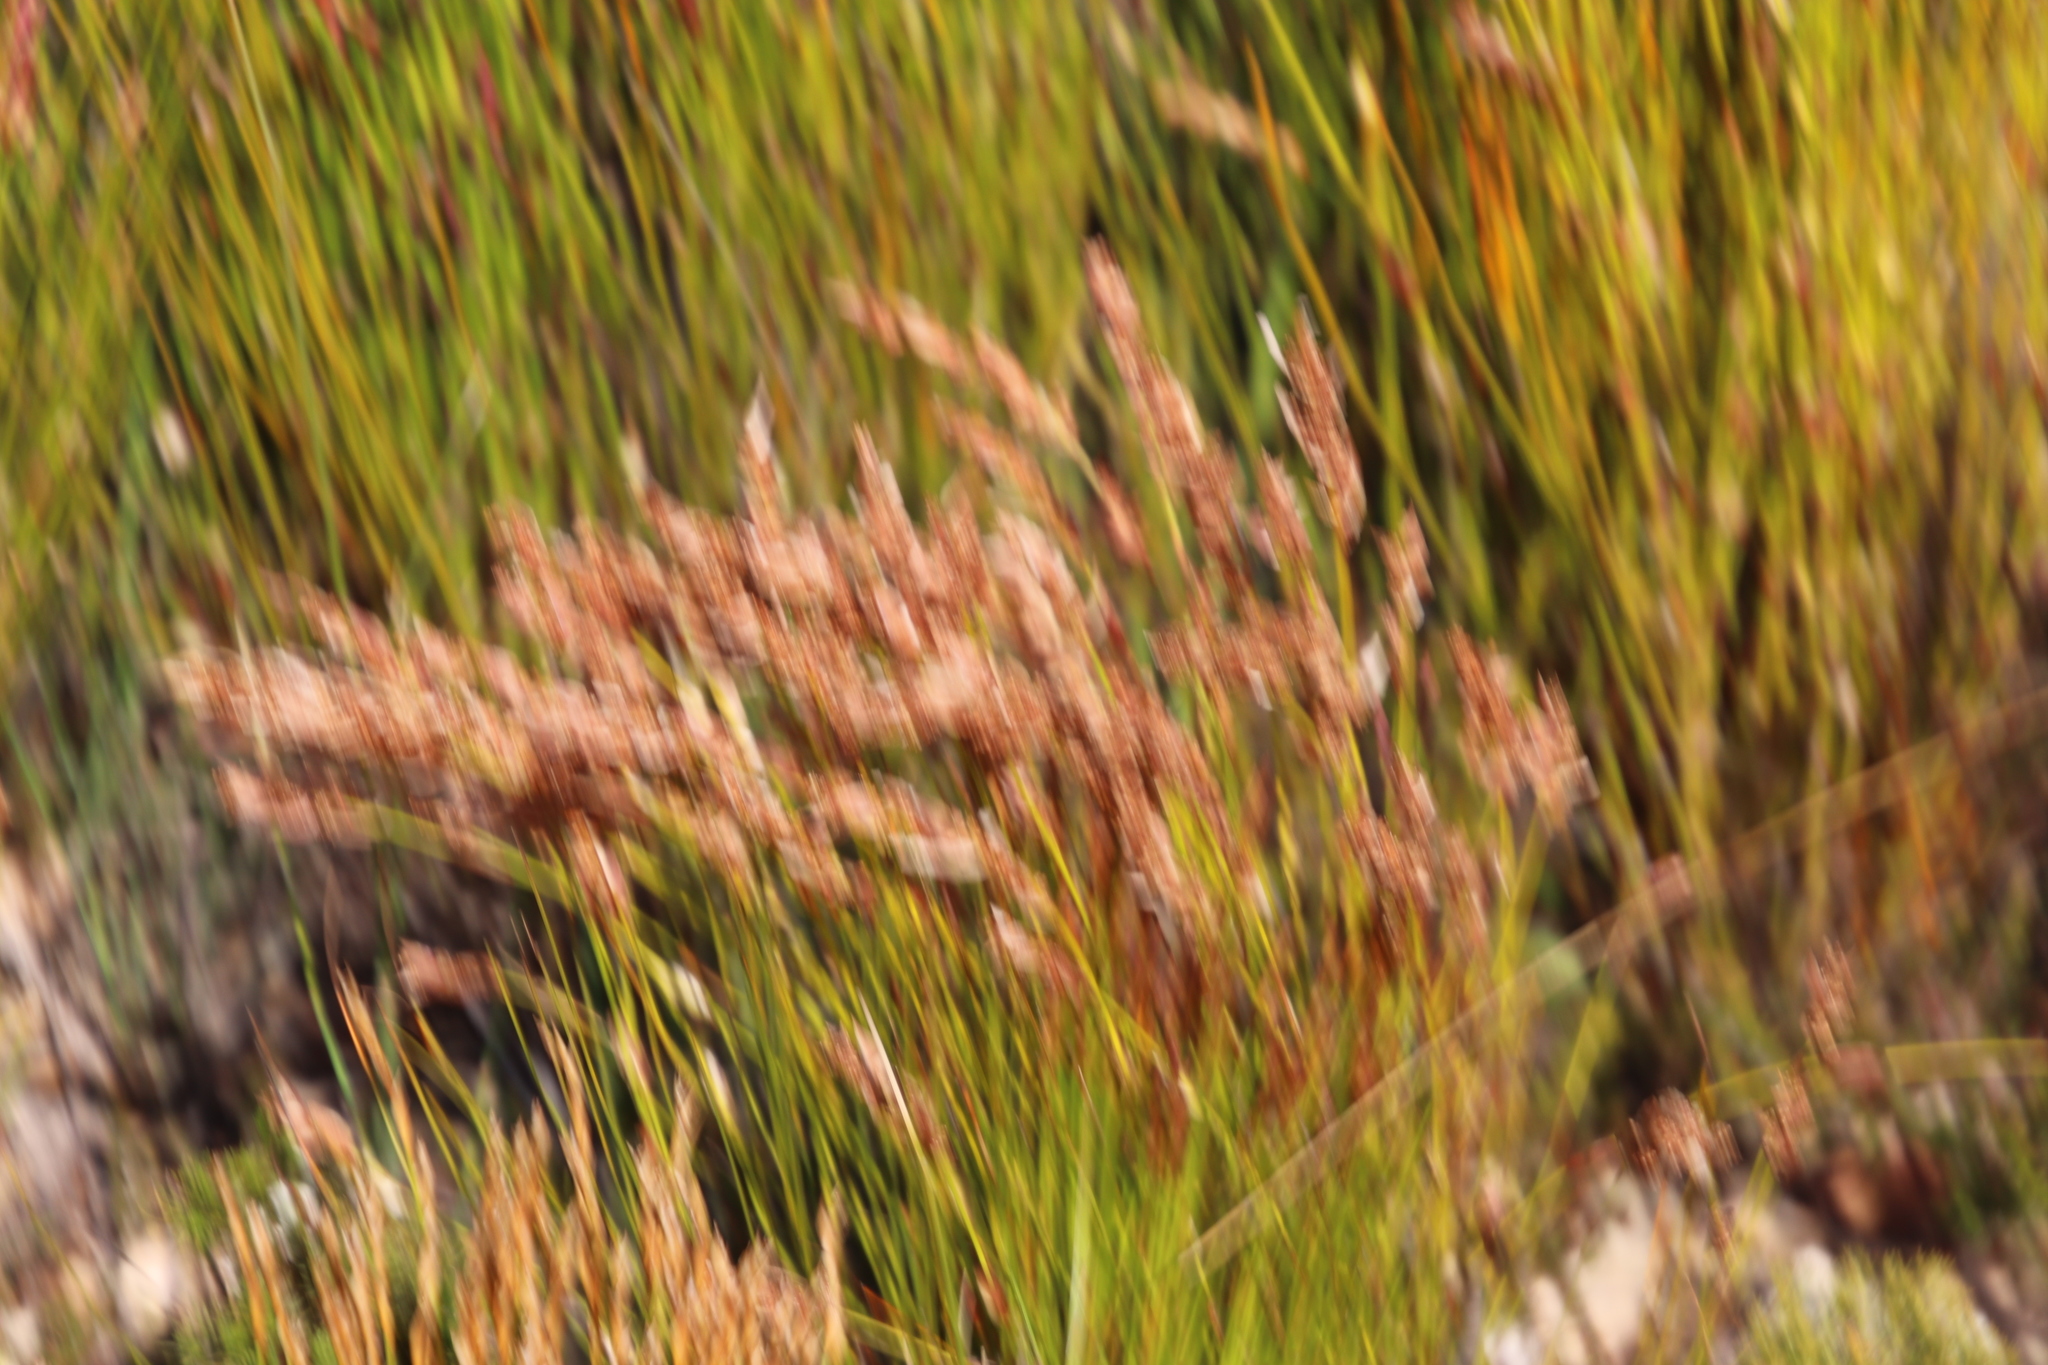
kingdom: Plantae
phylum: Tracheophyta
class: Liliopsida
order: Poales
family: Restionaceae
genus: Elegia
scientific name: Elegia stipularis
